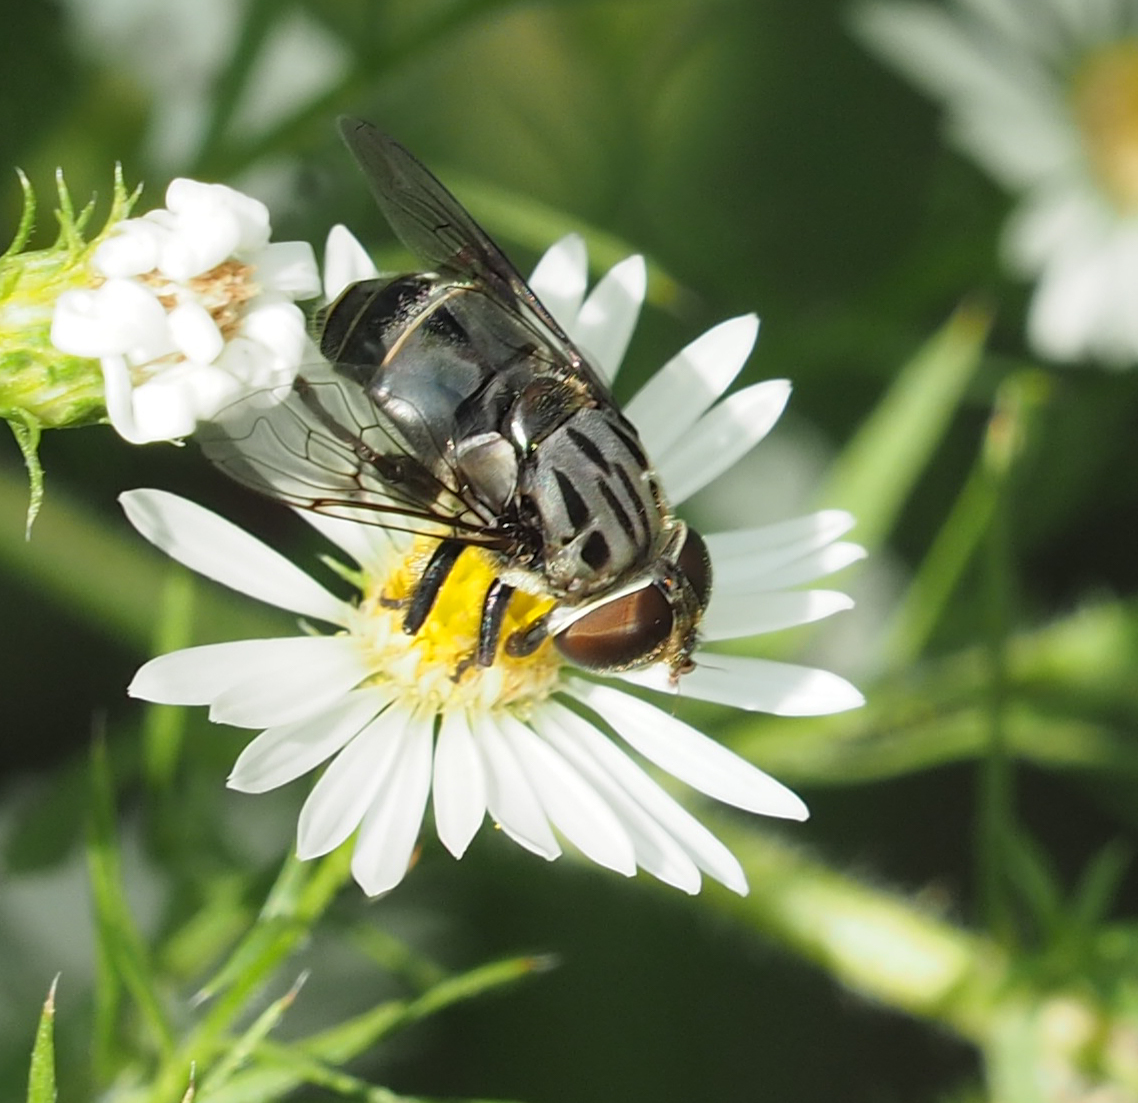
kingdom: Animalia
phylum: Arthropoda
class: Insecta
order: Diptera
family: Syrphidae
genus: Palpada
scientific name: Palpada furcata
